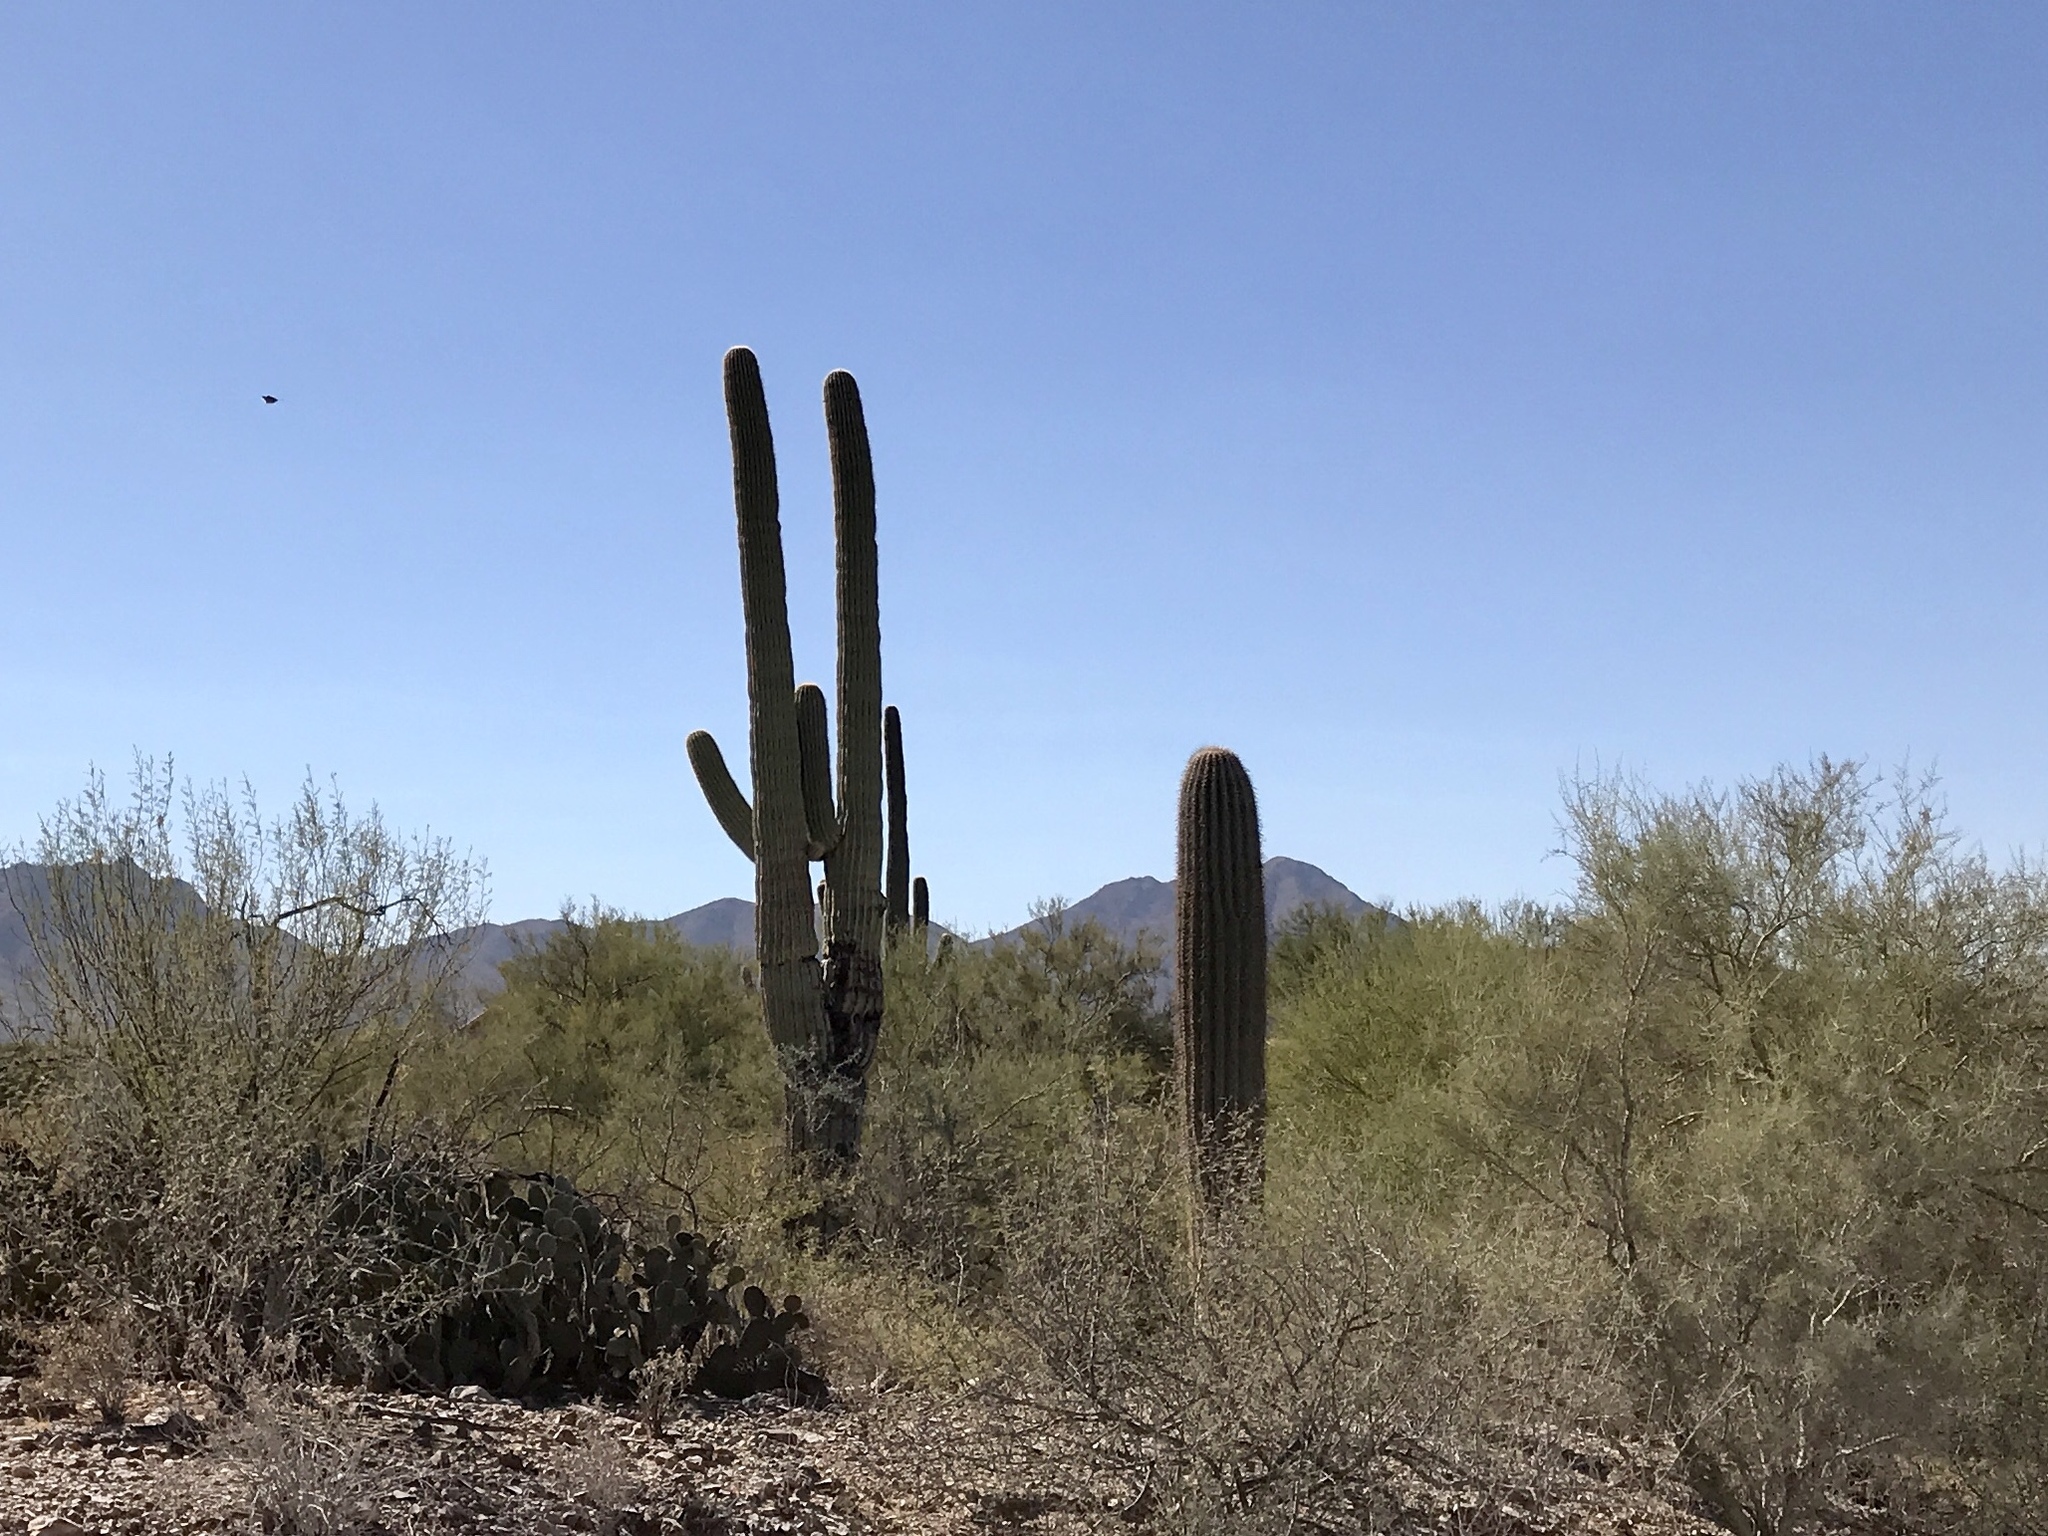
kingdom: Plantae
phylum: Tracheophyta
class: Magnoliopsida
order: Caryophyllales
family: Cactaceae
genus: Carnegiea
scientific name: Carnegiea gigantea
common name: Saguaro
